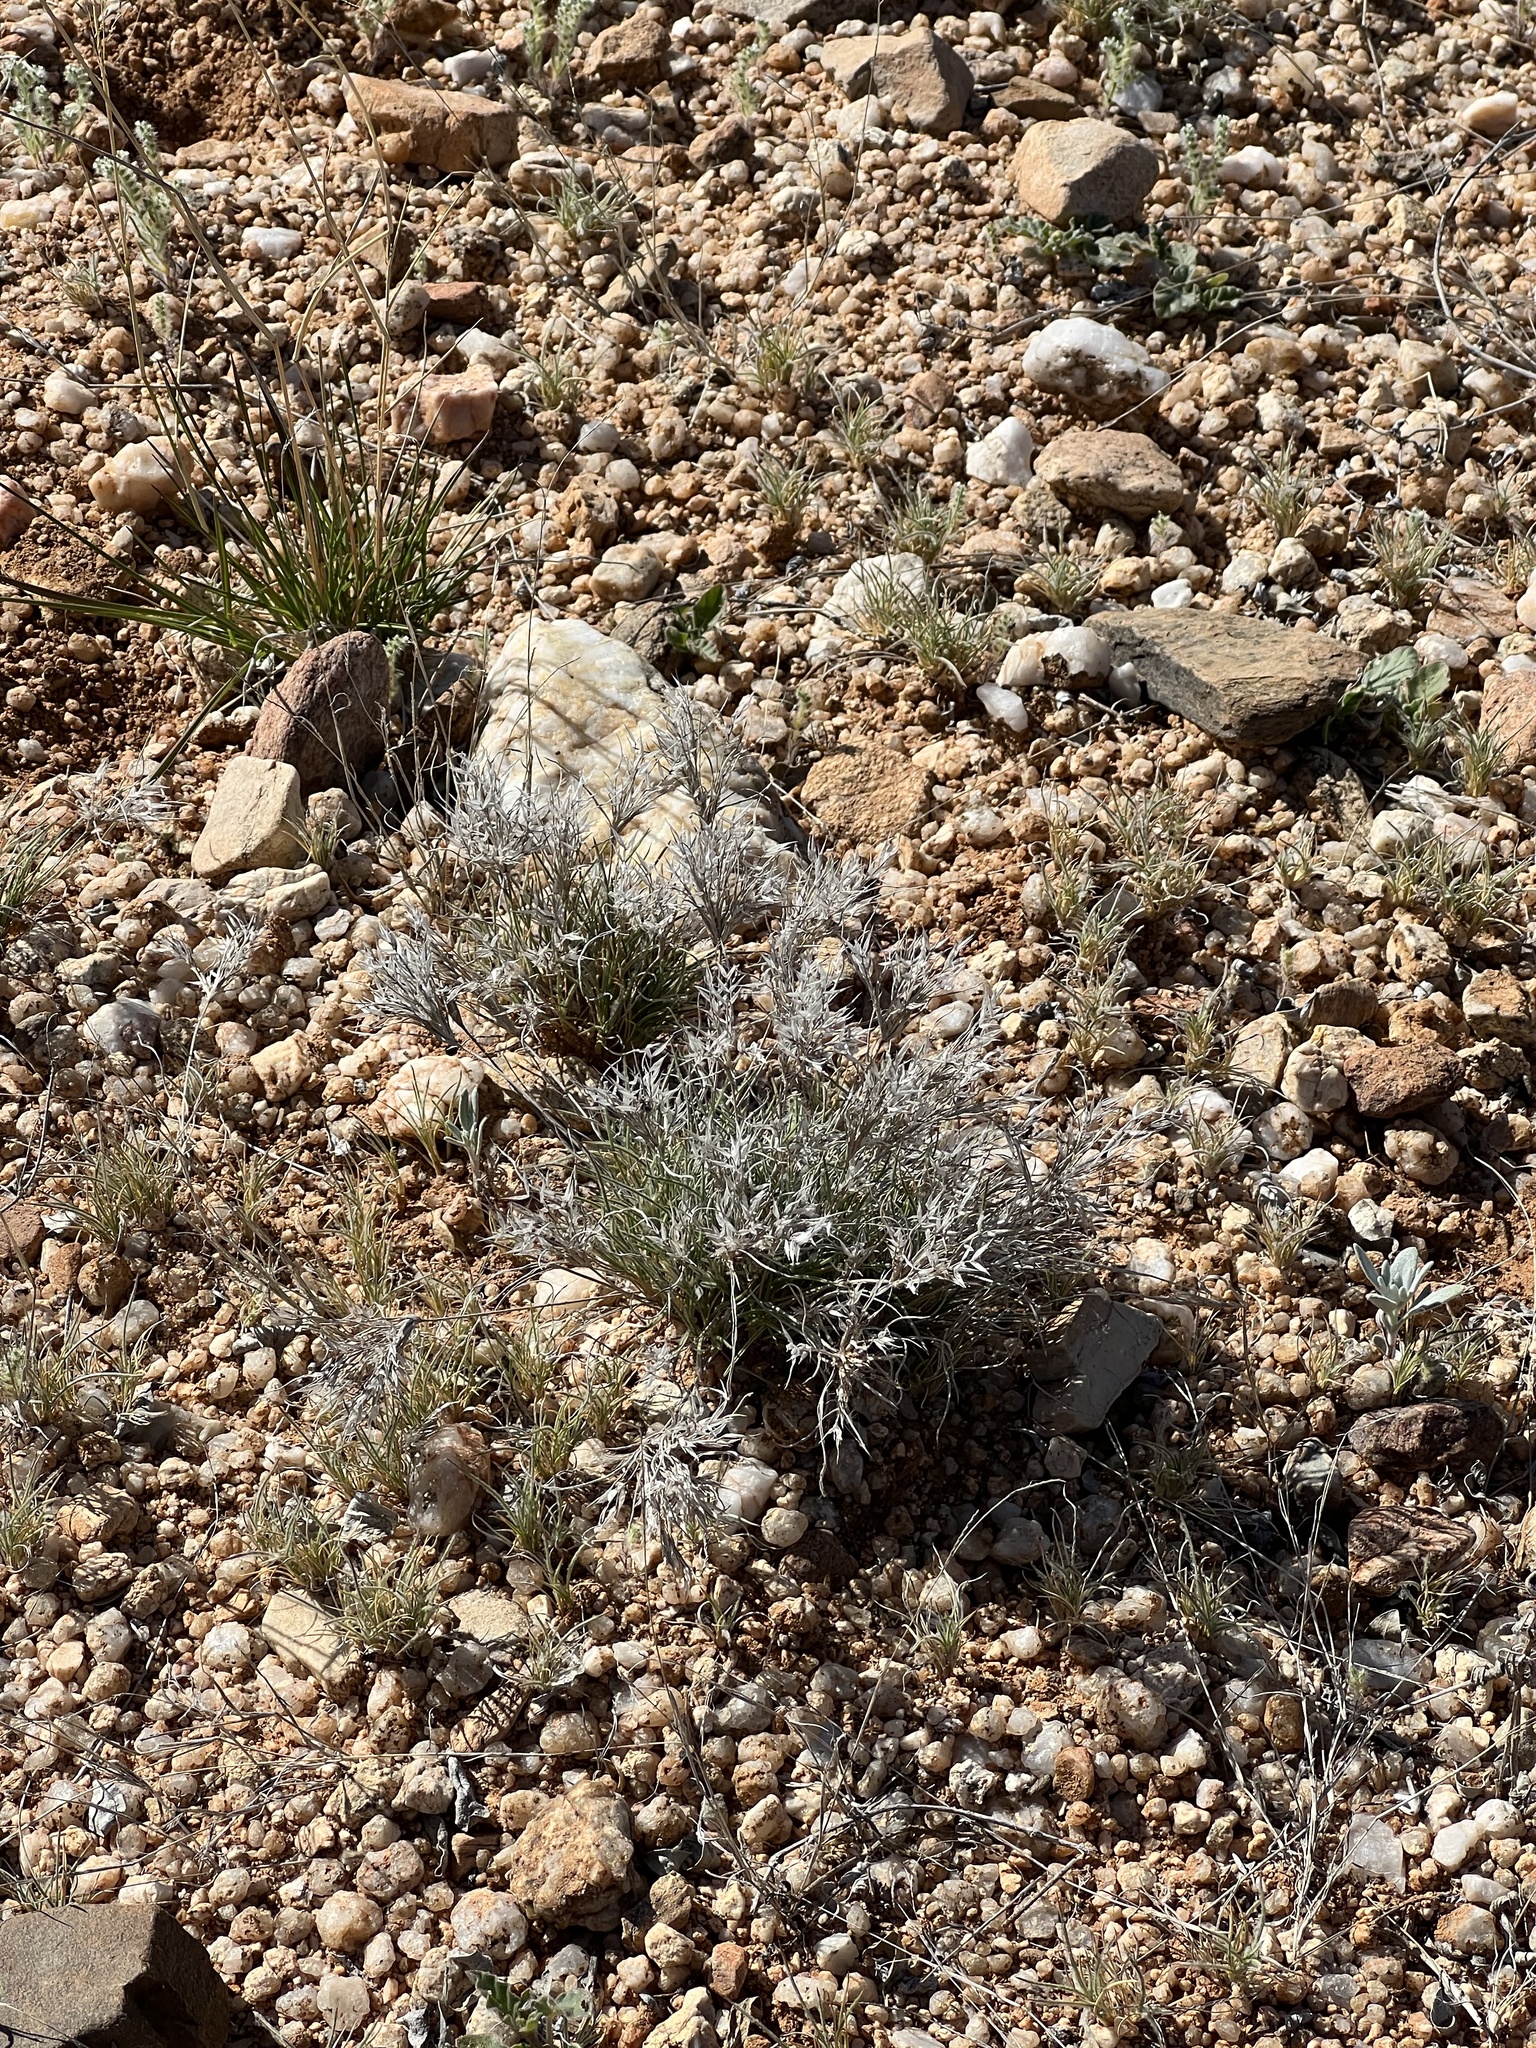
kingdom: Plantae
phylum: Tracheophyta
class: Liliopsida
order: Poales
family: Poaceae
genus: Dasyochloa
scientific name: Dasyochloa pulchella
